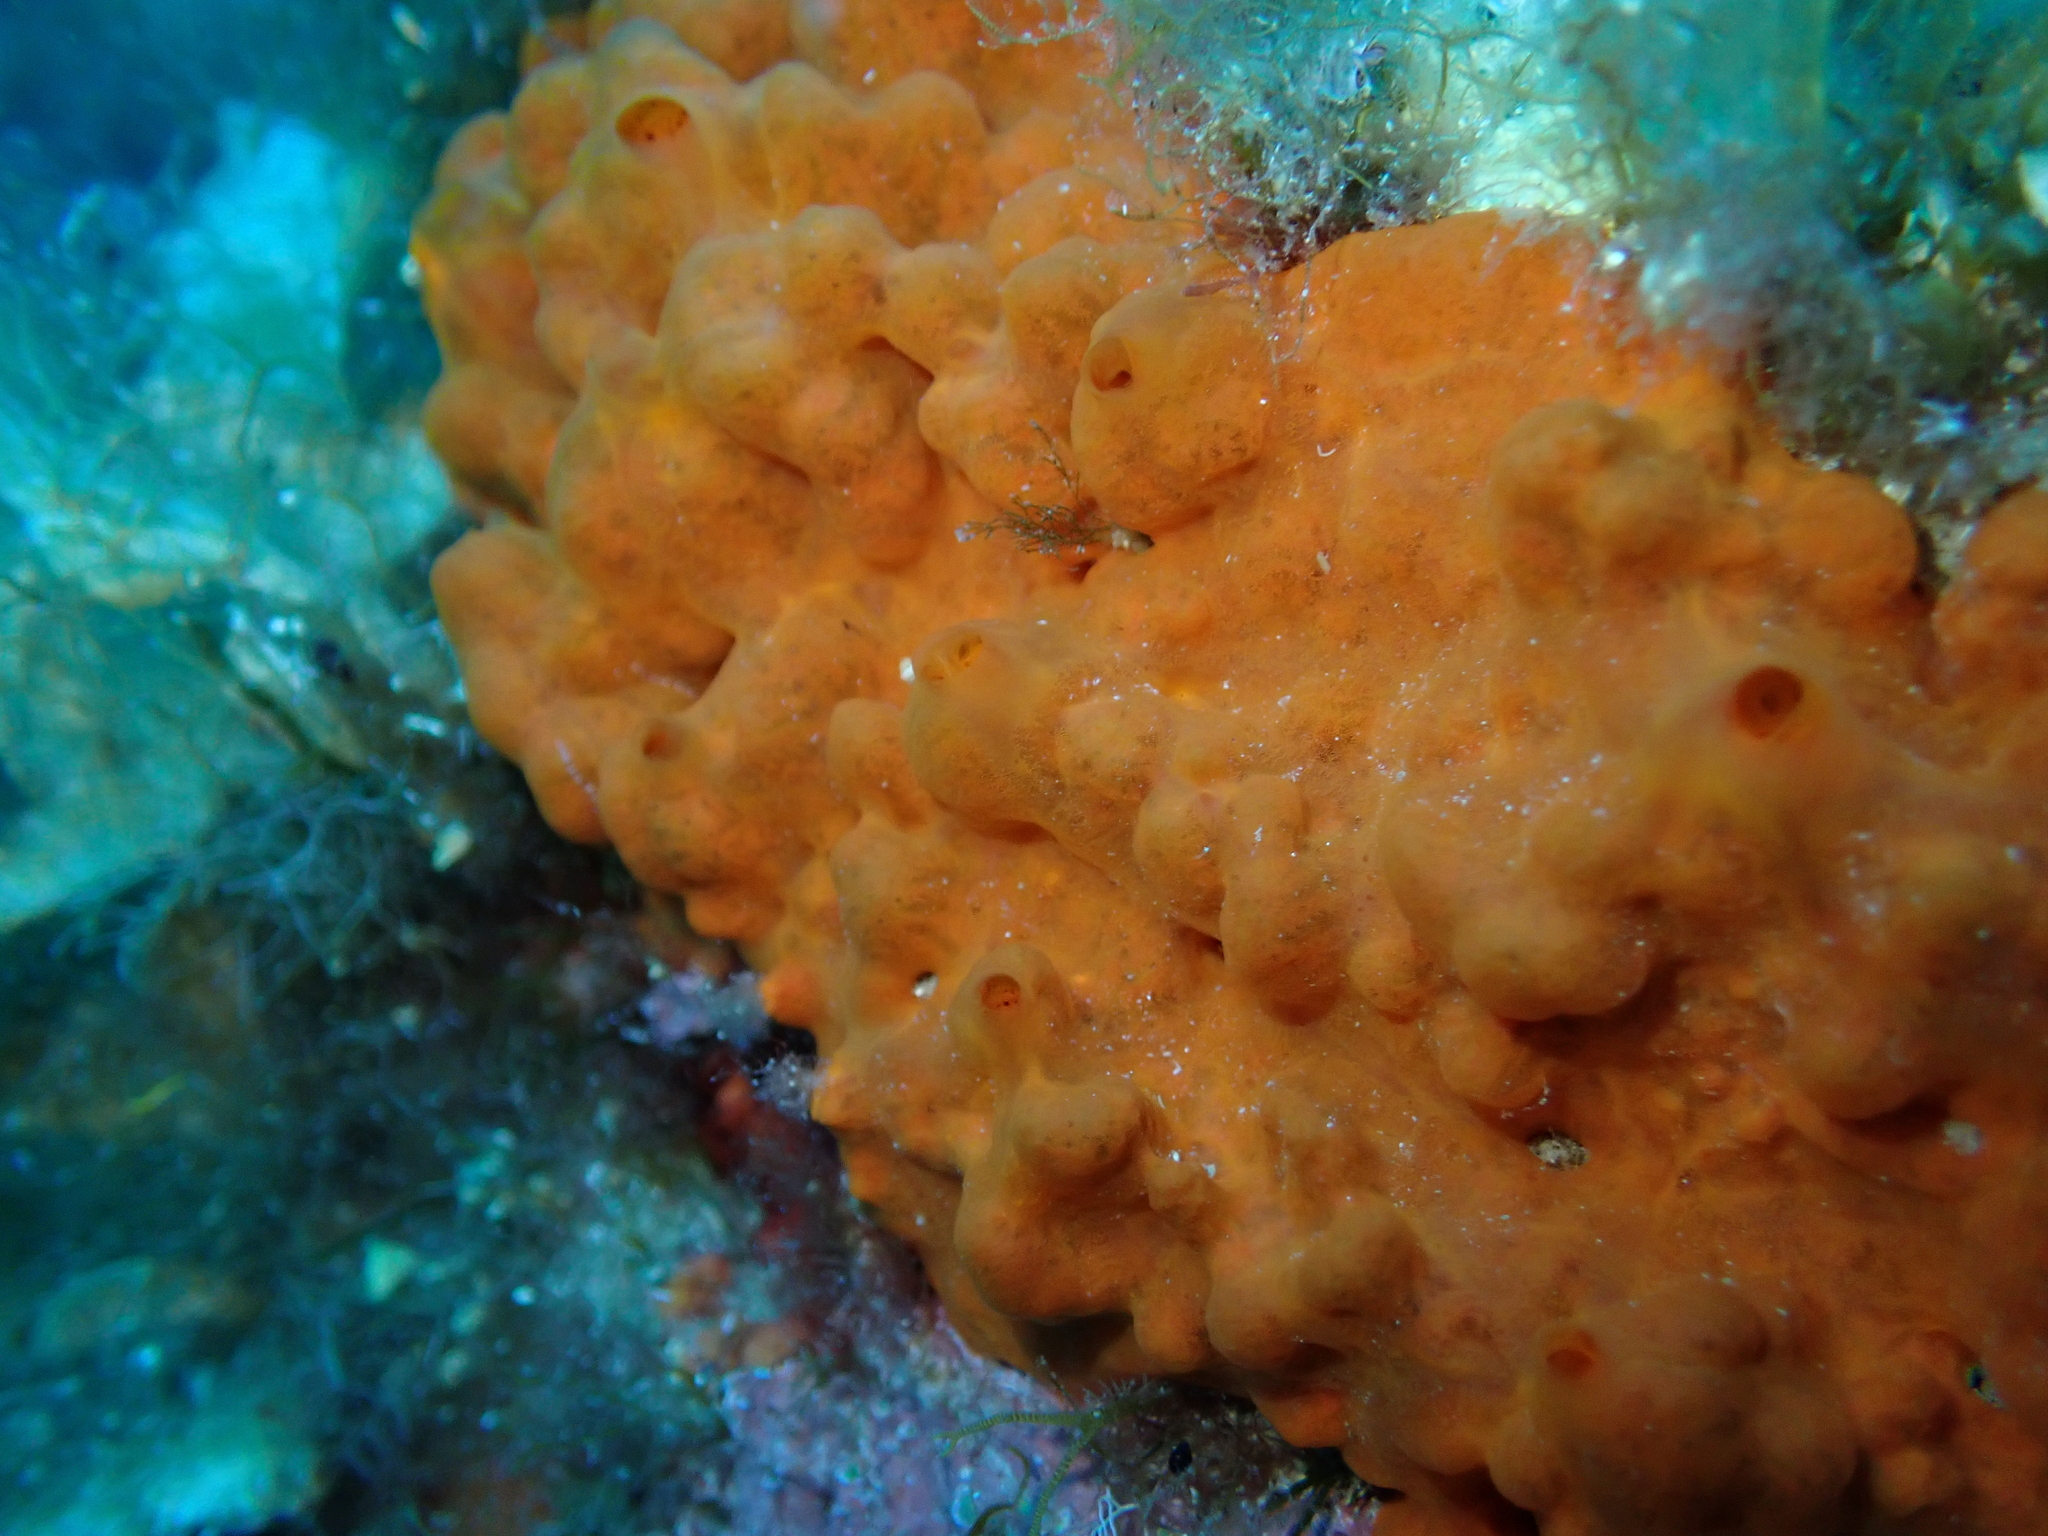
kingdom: Animalia
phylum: Porifera
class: Demospongiae
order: Poecilosclerida
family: Crambeidae
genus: Crambe
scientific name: Crambe crambe
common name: Orange-red encrusting sponge
